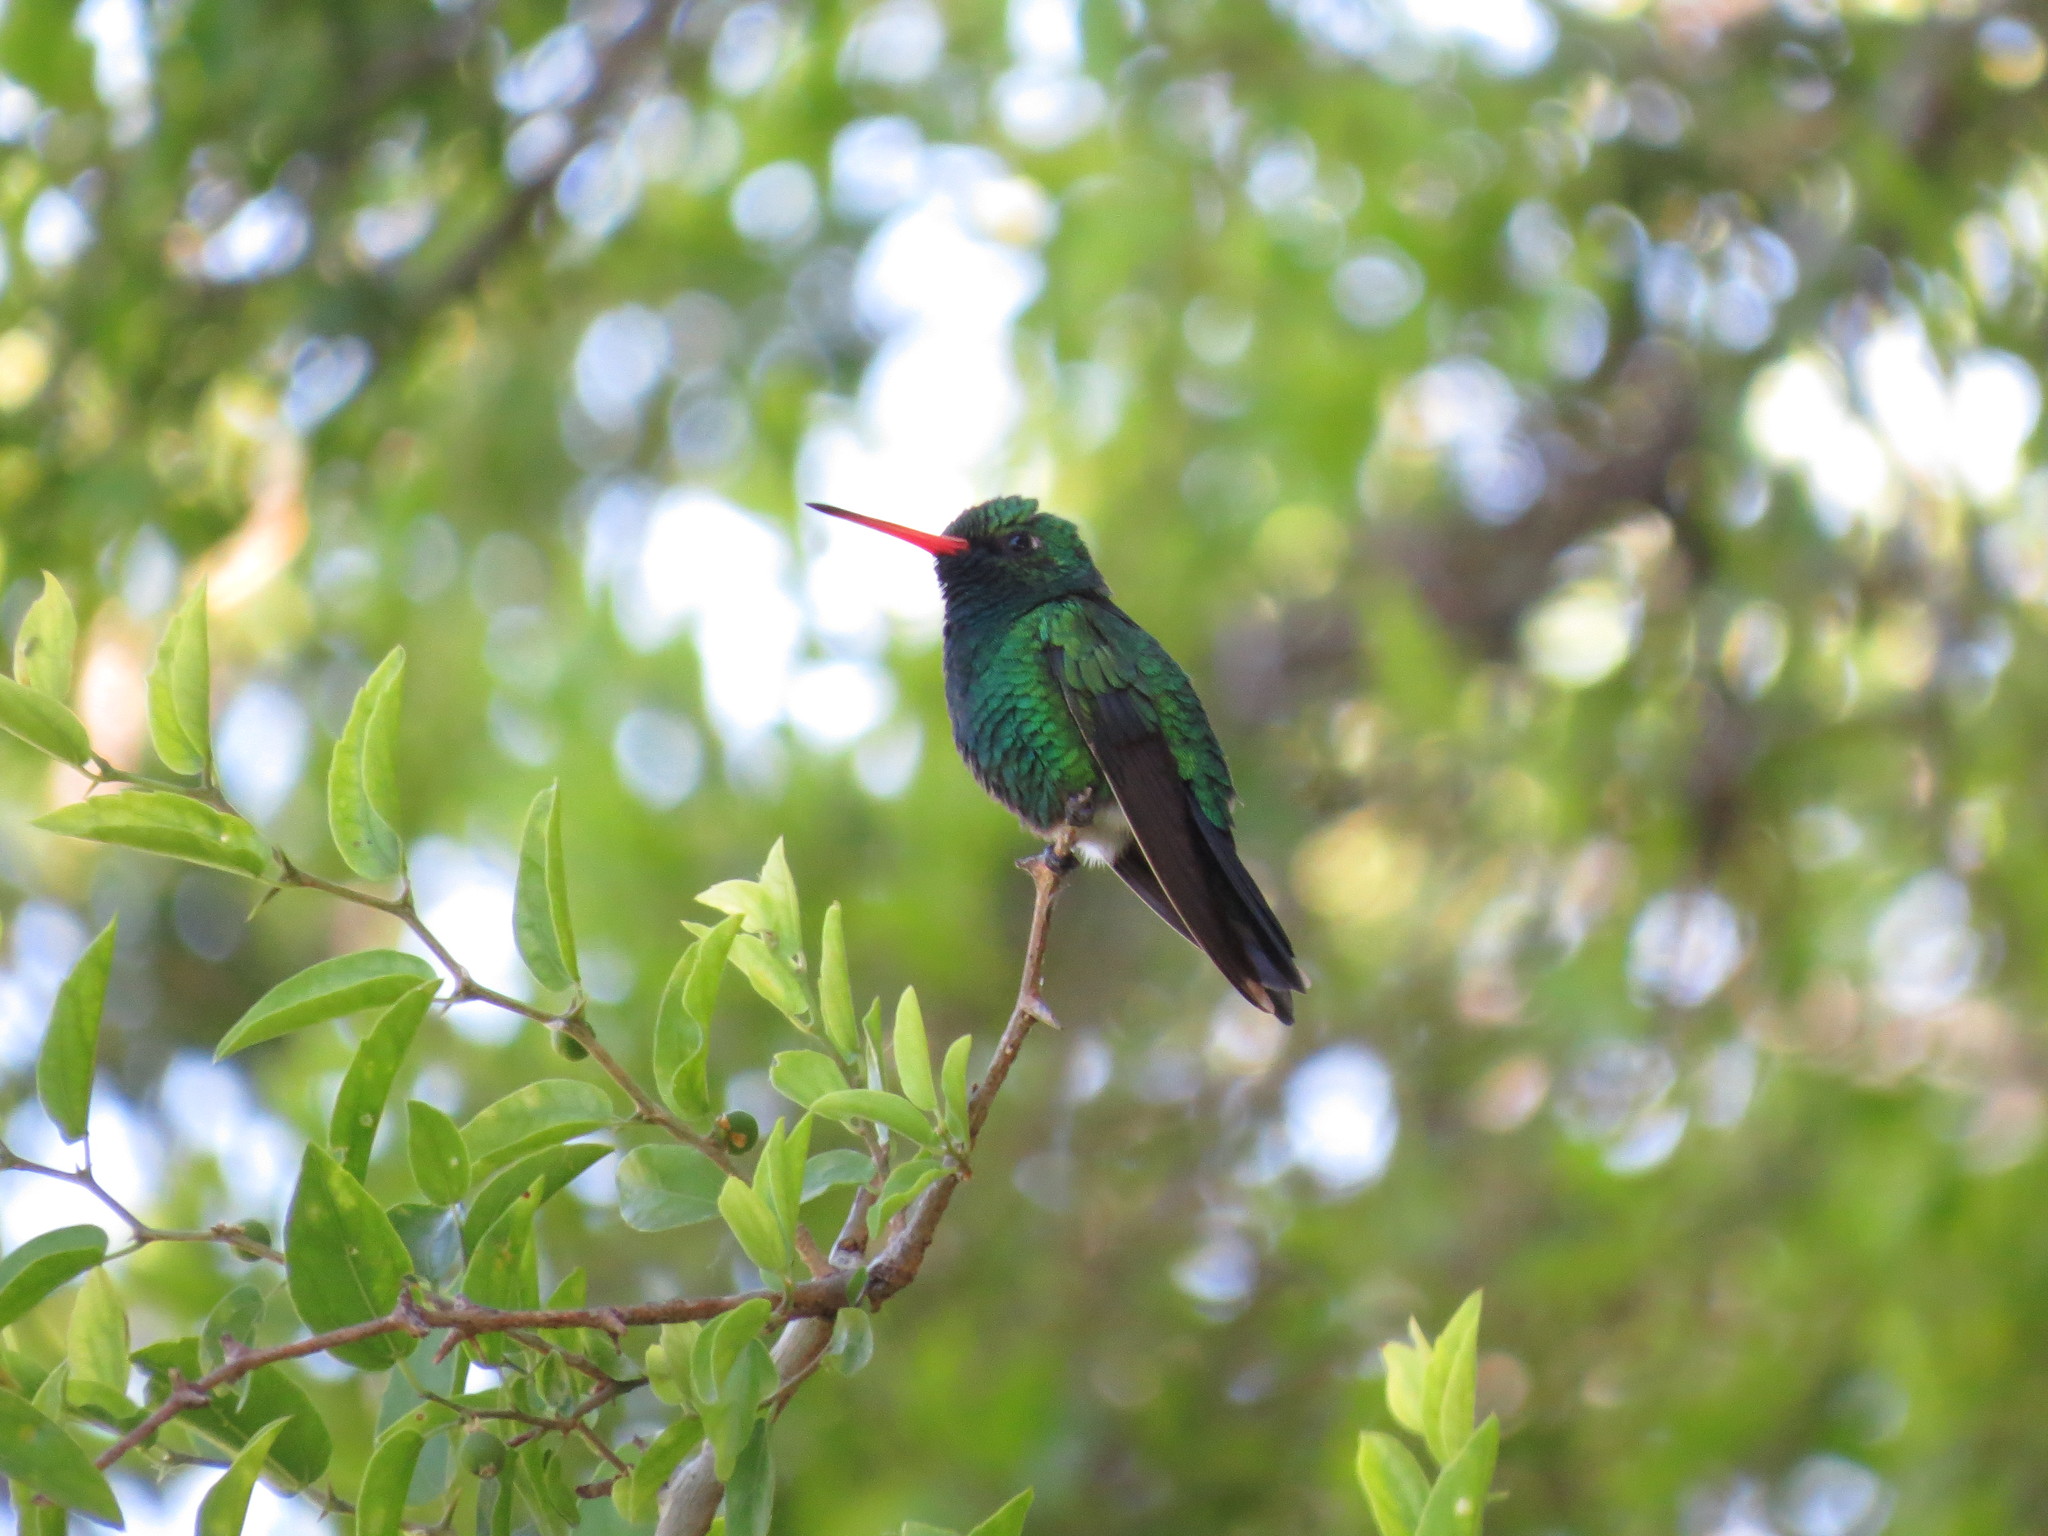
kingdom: Animalia
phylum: Chordata
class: Aves
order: Apodiformes
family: Trochilidae
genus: Chlorostilbon
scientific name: Chlorostilbon lucidus
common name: Glittering-bellied emerald
